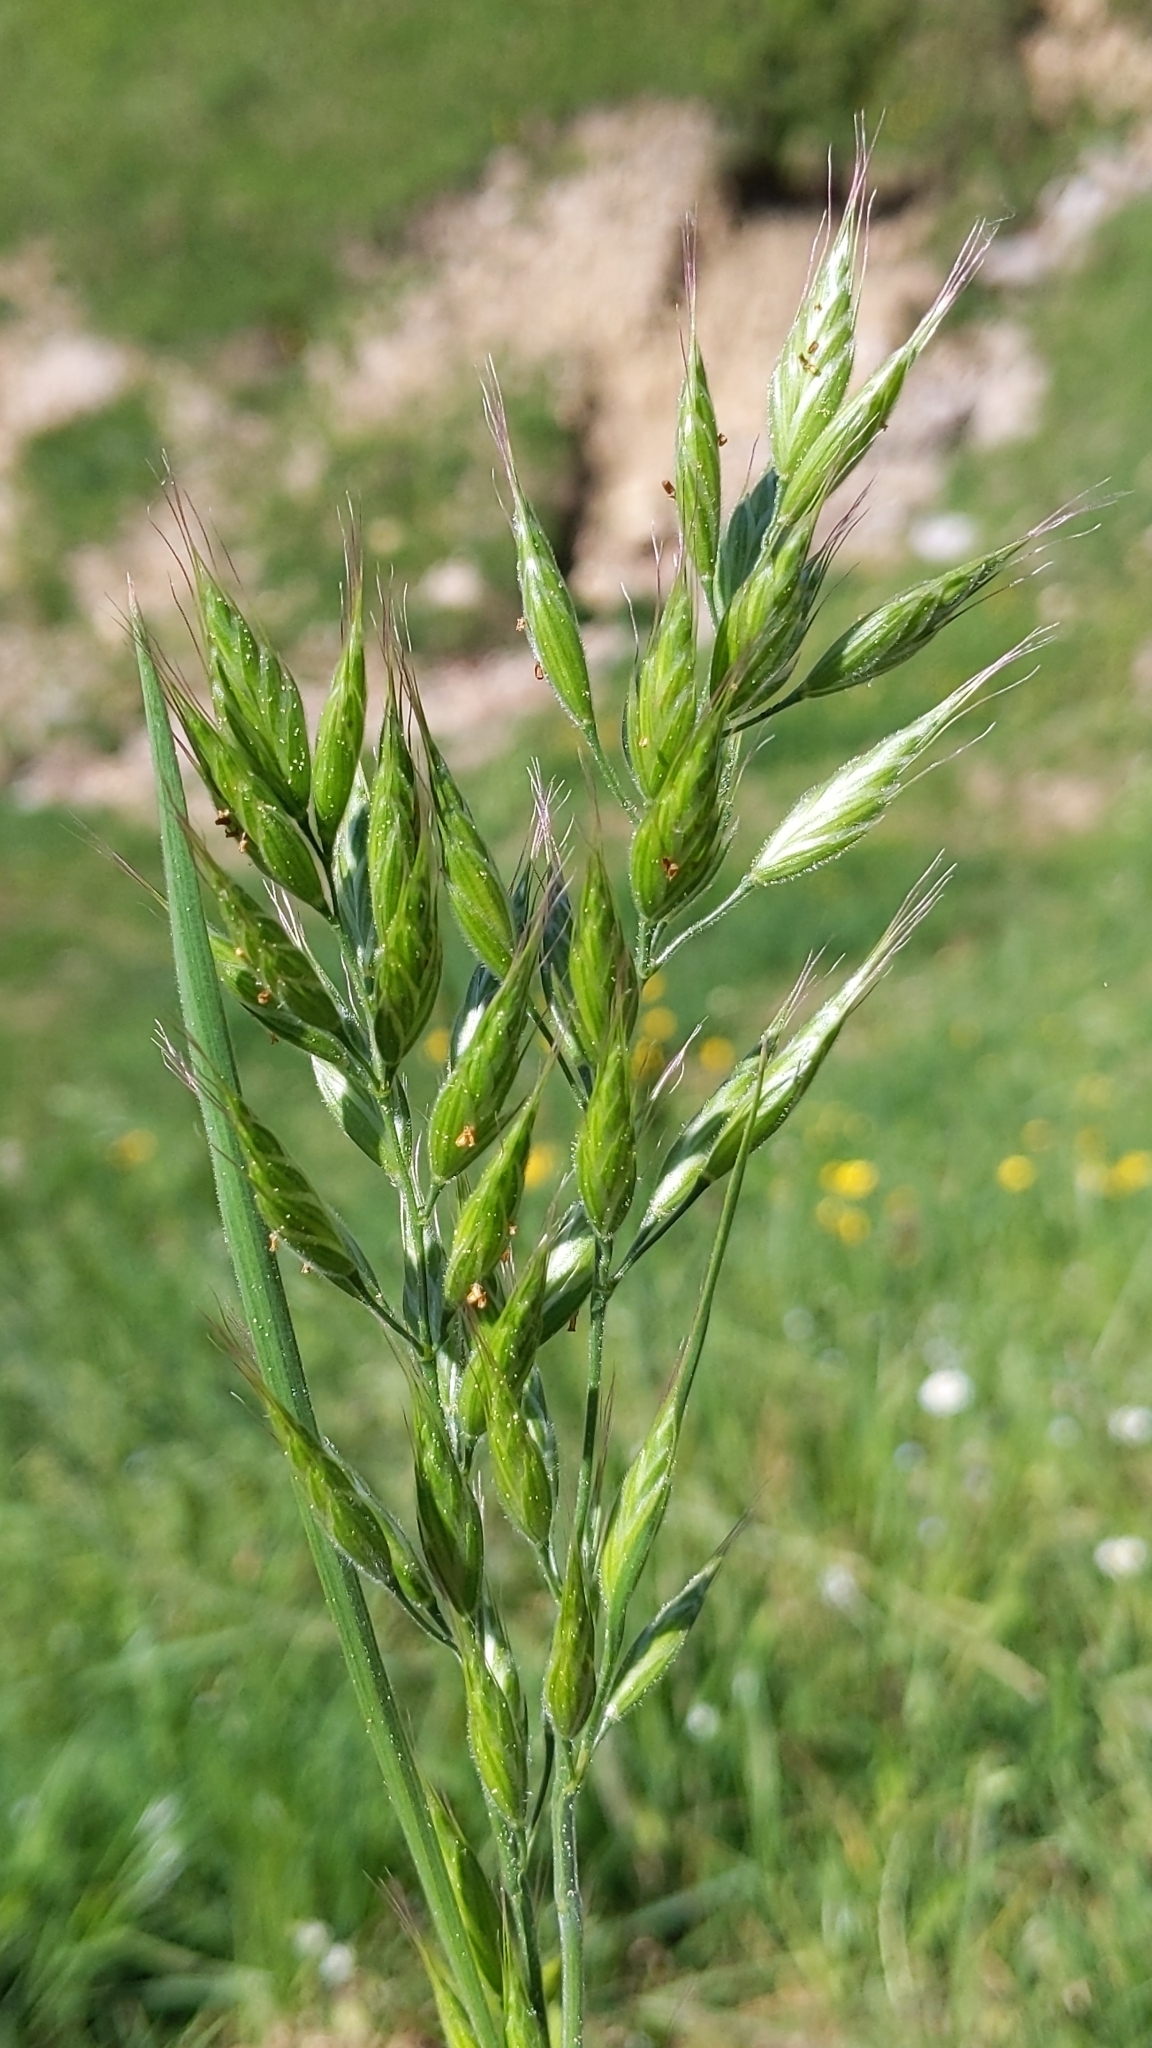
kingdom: Plantae
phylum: Tracheophyta
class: Liliopsida
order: Poales
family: Poaceae
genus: Bromus
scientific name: Bromus hordeaceus
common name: Soft brome
